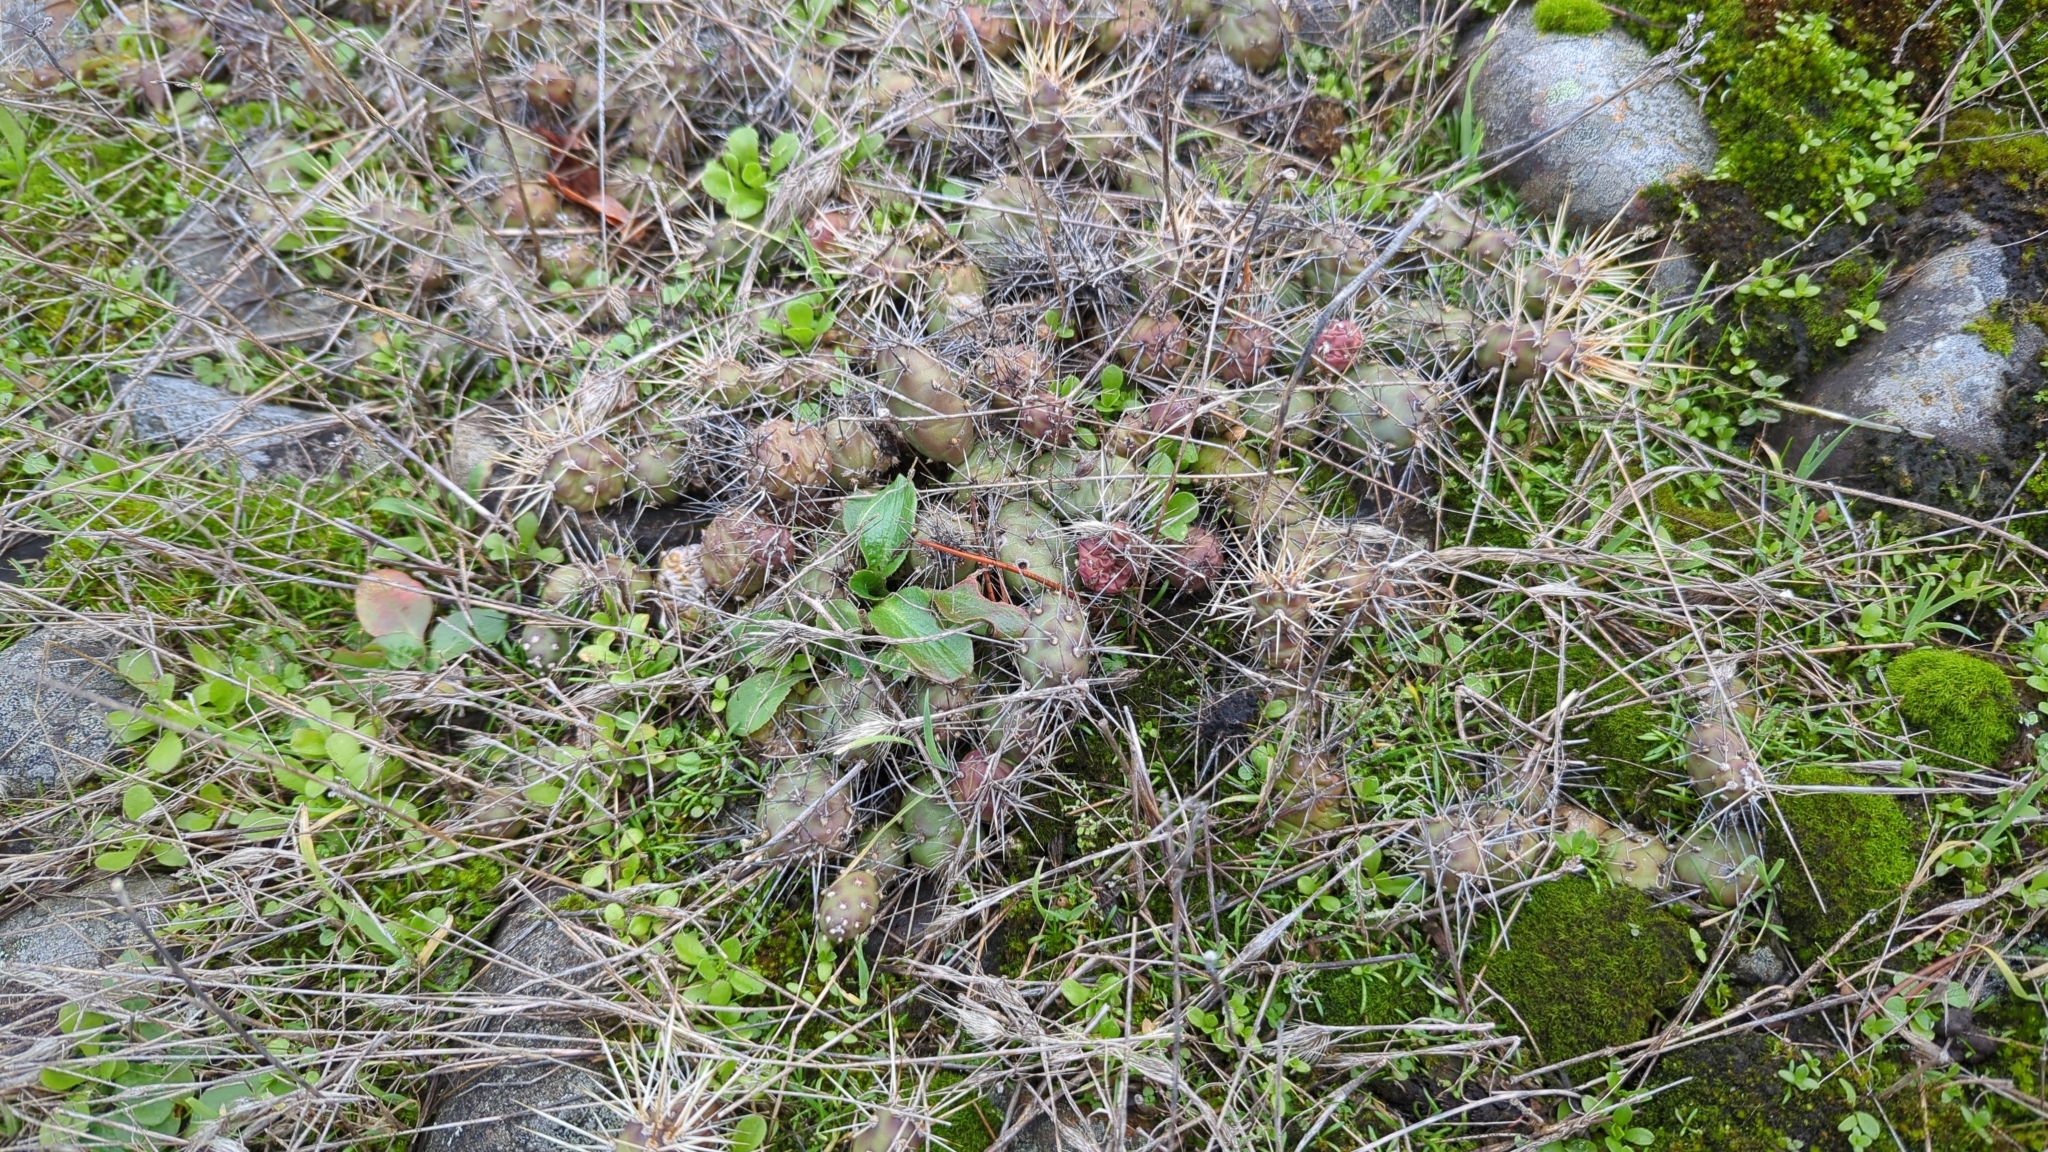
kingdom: Plantae
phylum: Tracheophyta
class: Magnoliopsida
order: Caryophyllales
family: Cactaceae
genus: Opuntia
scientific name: Opuntia fragilis
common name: Brittle cactus
